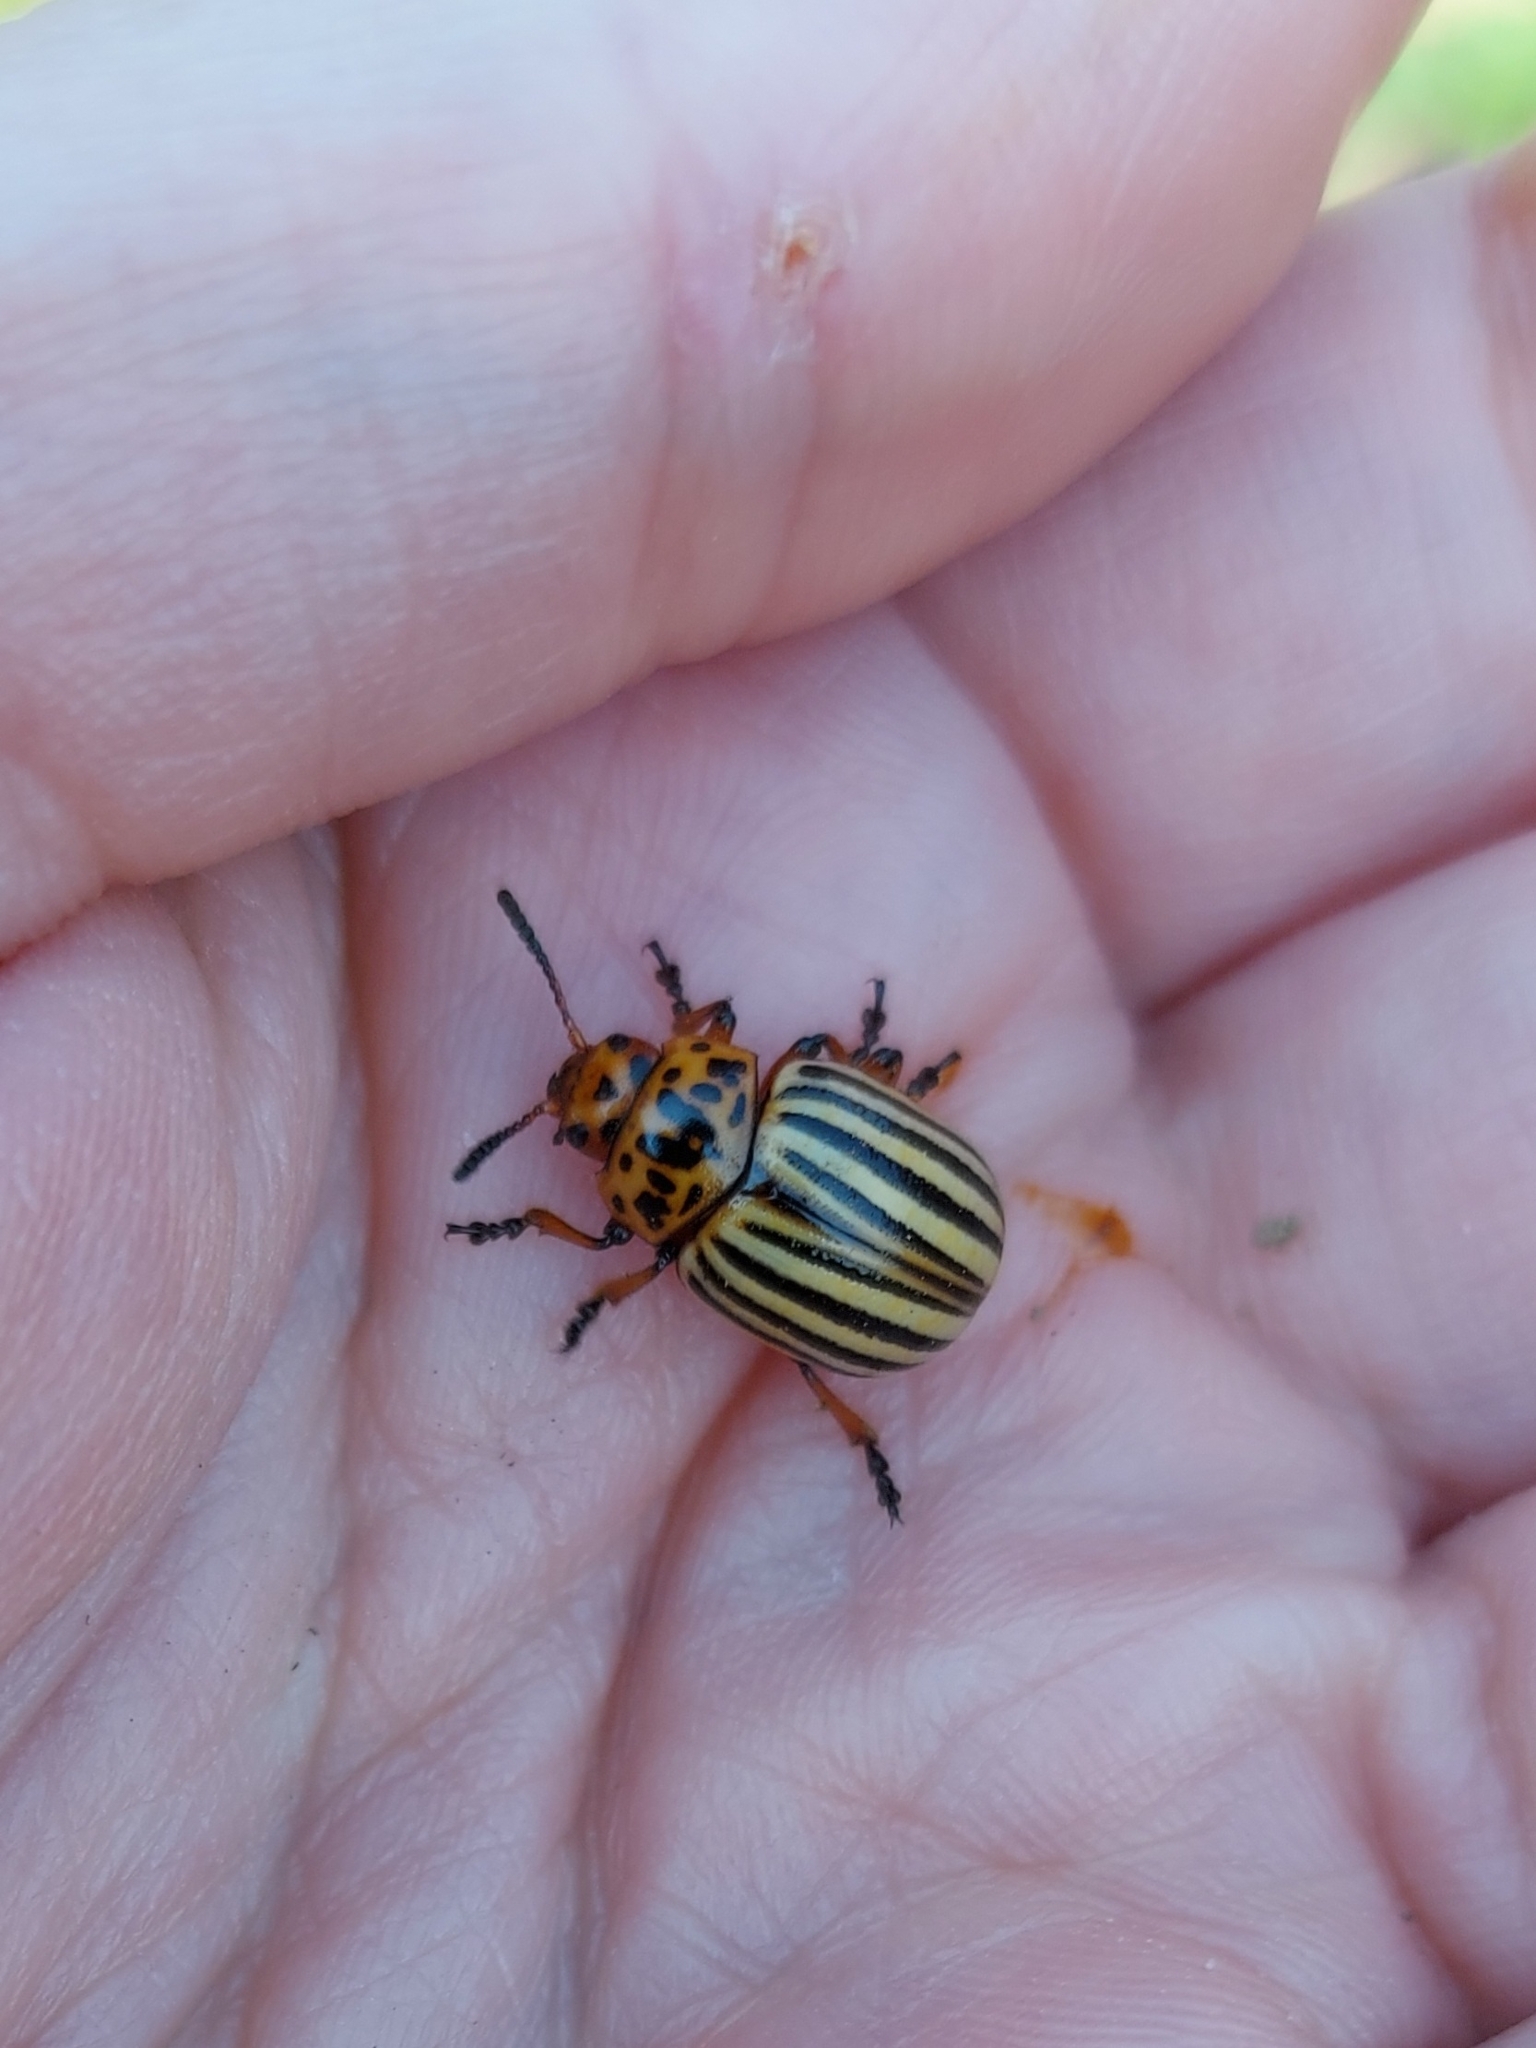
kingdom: Animalia
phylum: Arthropoda
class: Insecta
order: Coleoptera
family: Chrysomelidae
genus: Leptinotarsa
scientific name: Leptinotarsa decemlineata
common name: Colorado potato beetle
